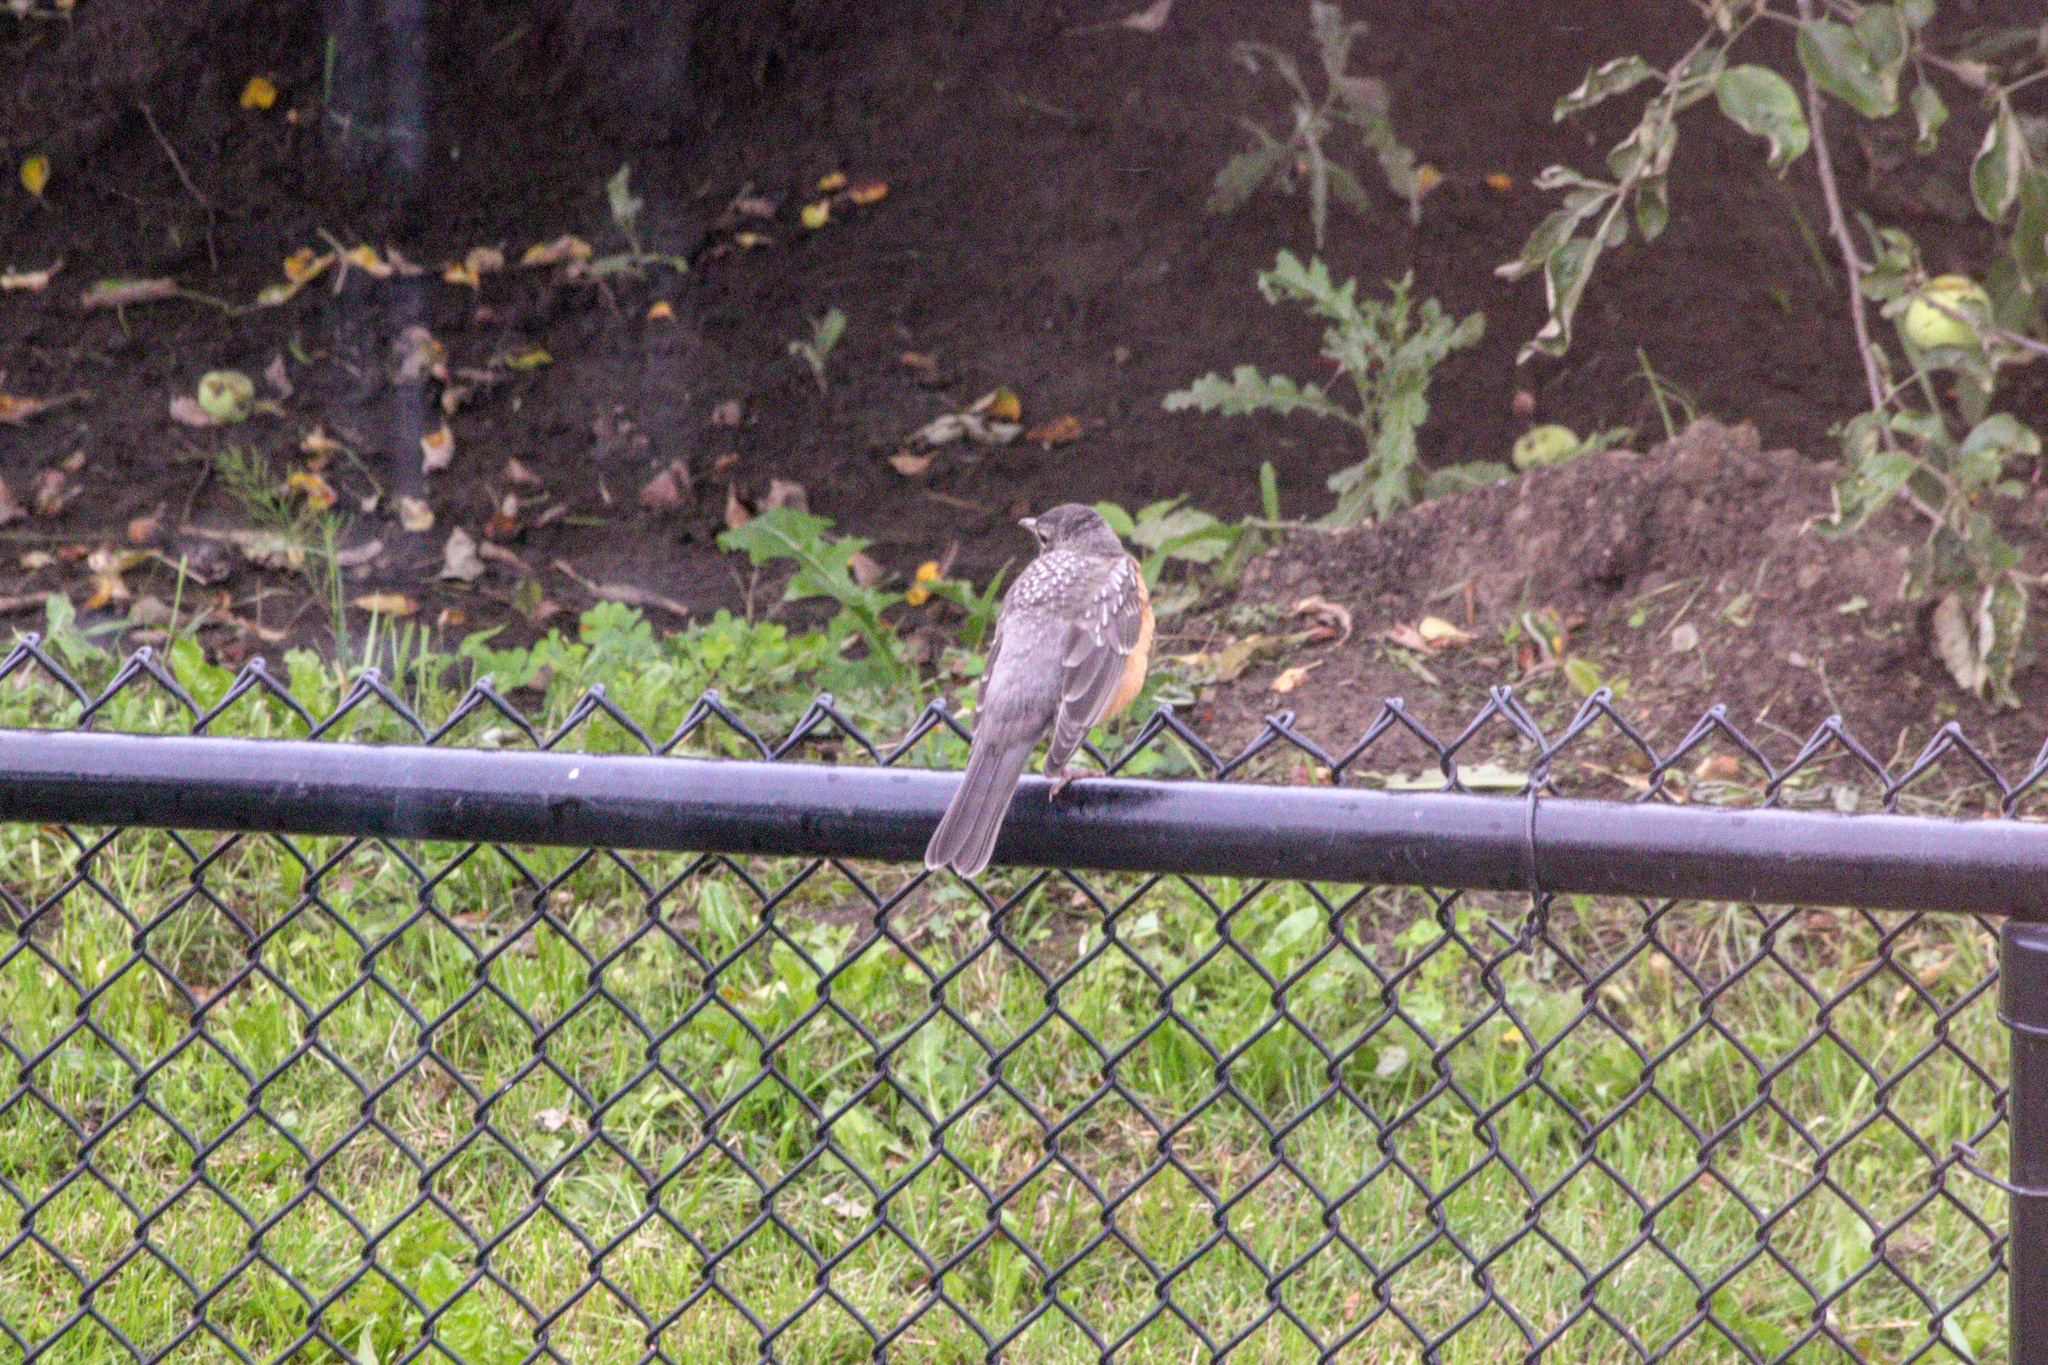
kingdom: Animalia
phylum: Chordata
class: Aves
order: Passeriformes
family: Turdidae
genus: Turdus
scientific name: Turdus migratorius
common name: American robin
